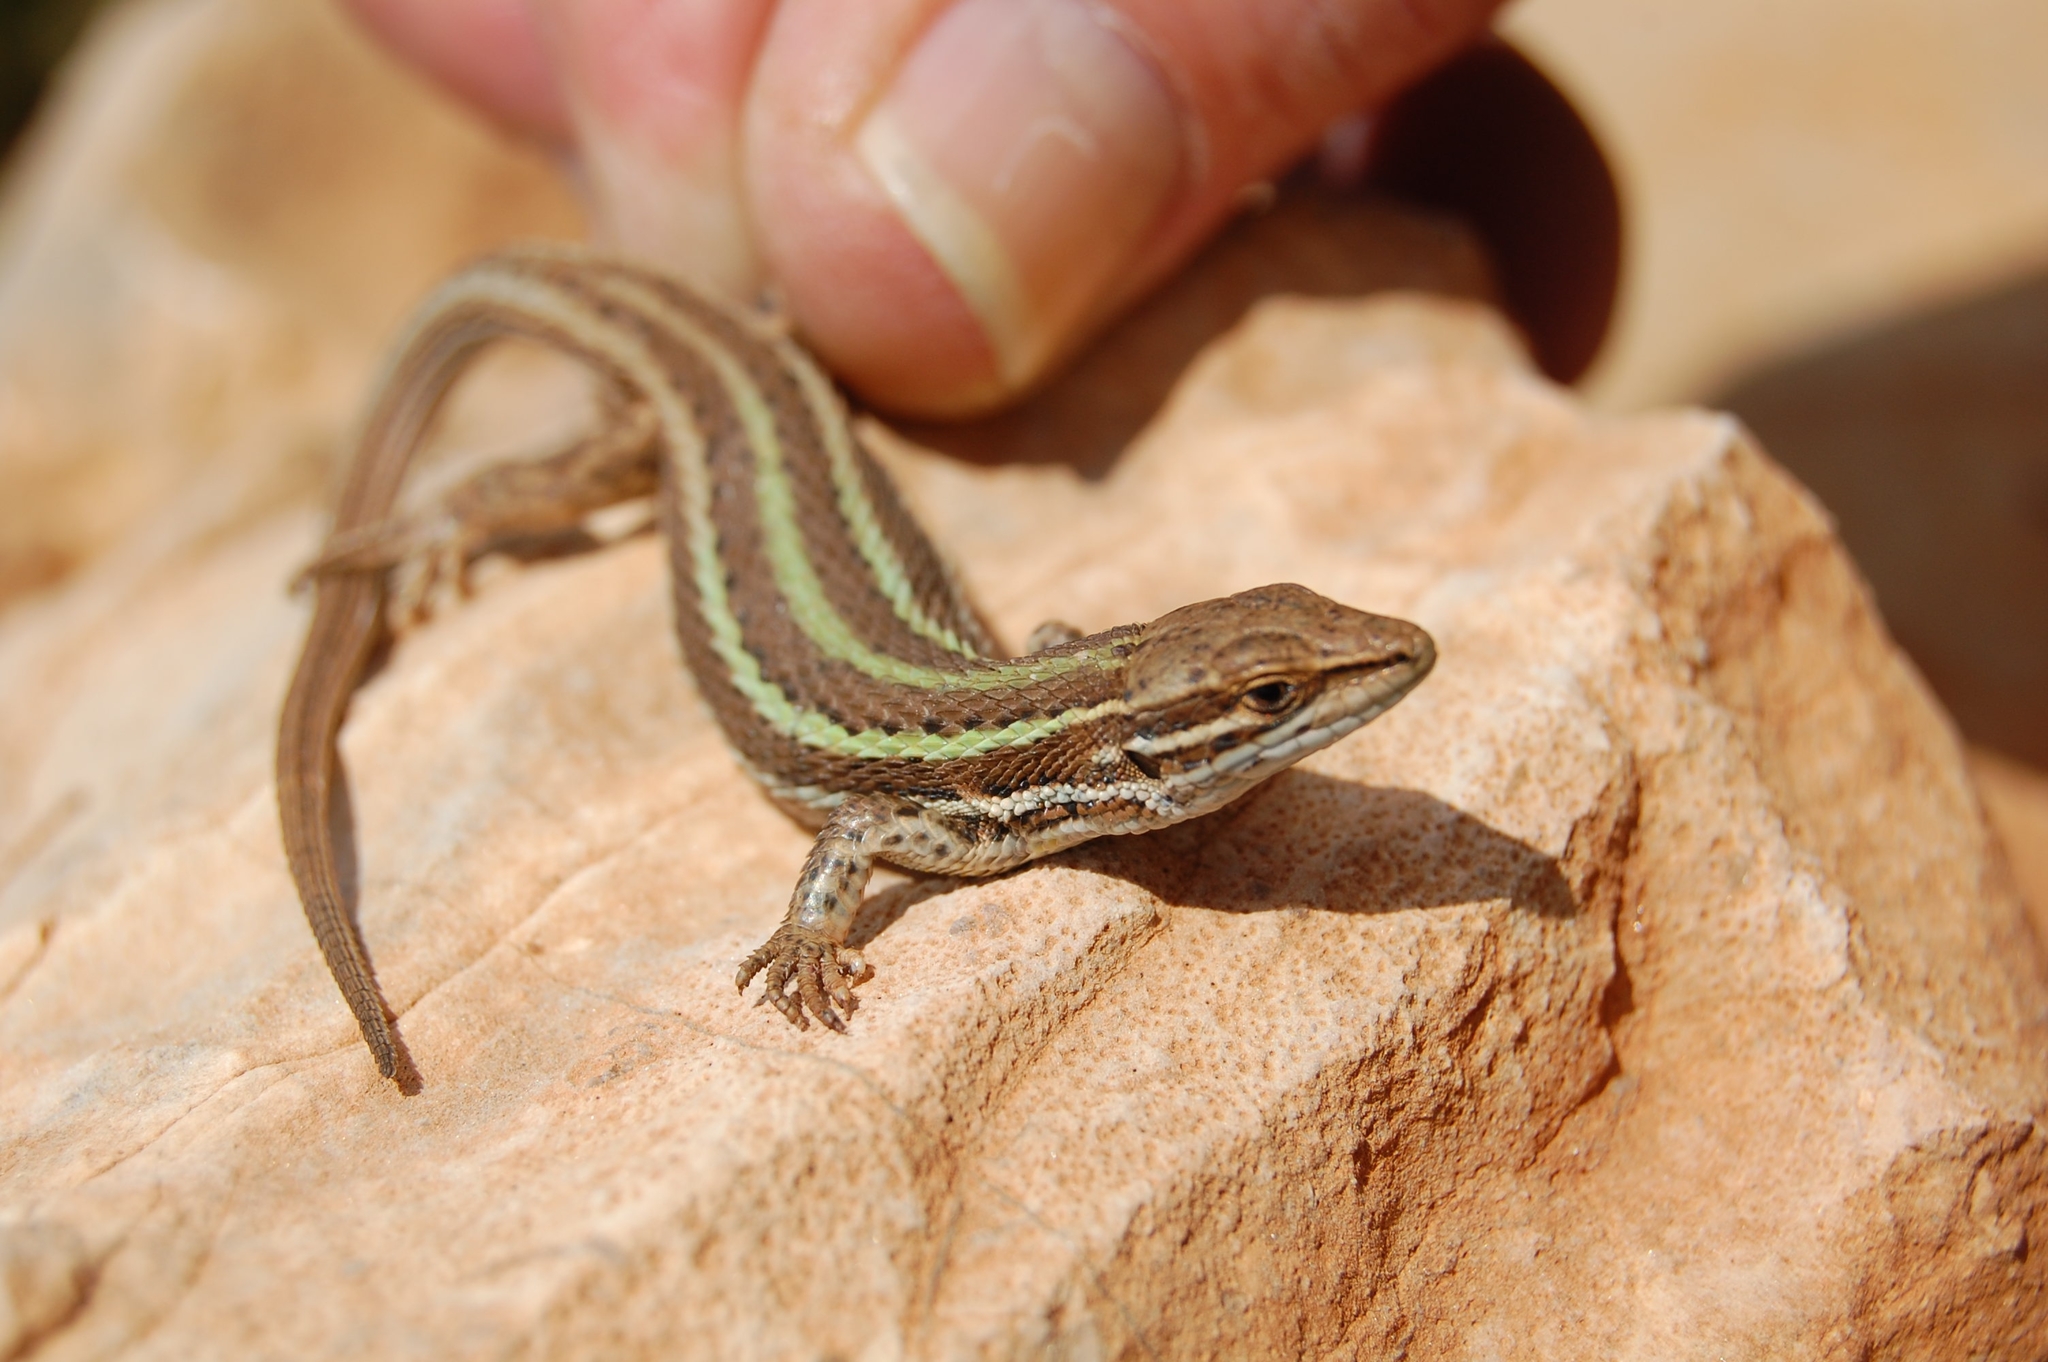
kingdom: Animalia
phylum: Chordata
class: Squamata
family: Lacertidae
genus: Psammodromus
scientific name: Psammodromus microdactylus
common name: Small-fingered psammodromus
